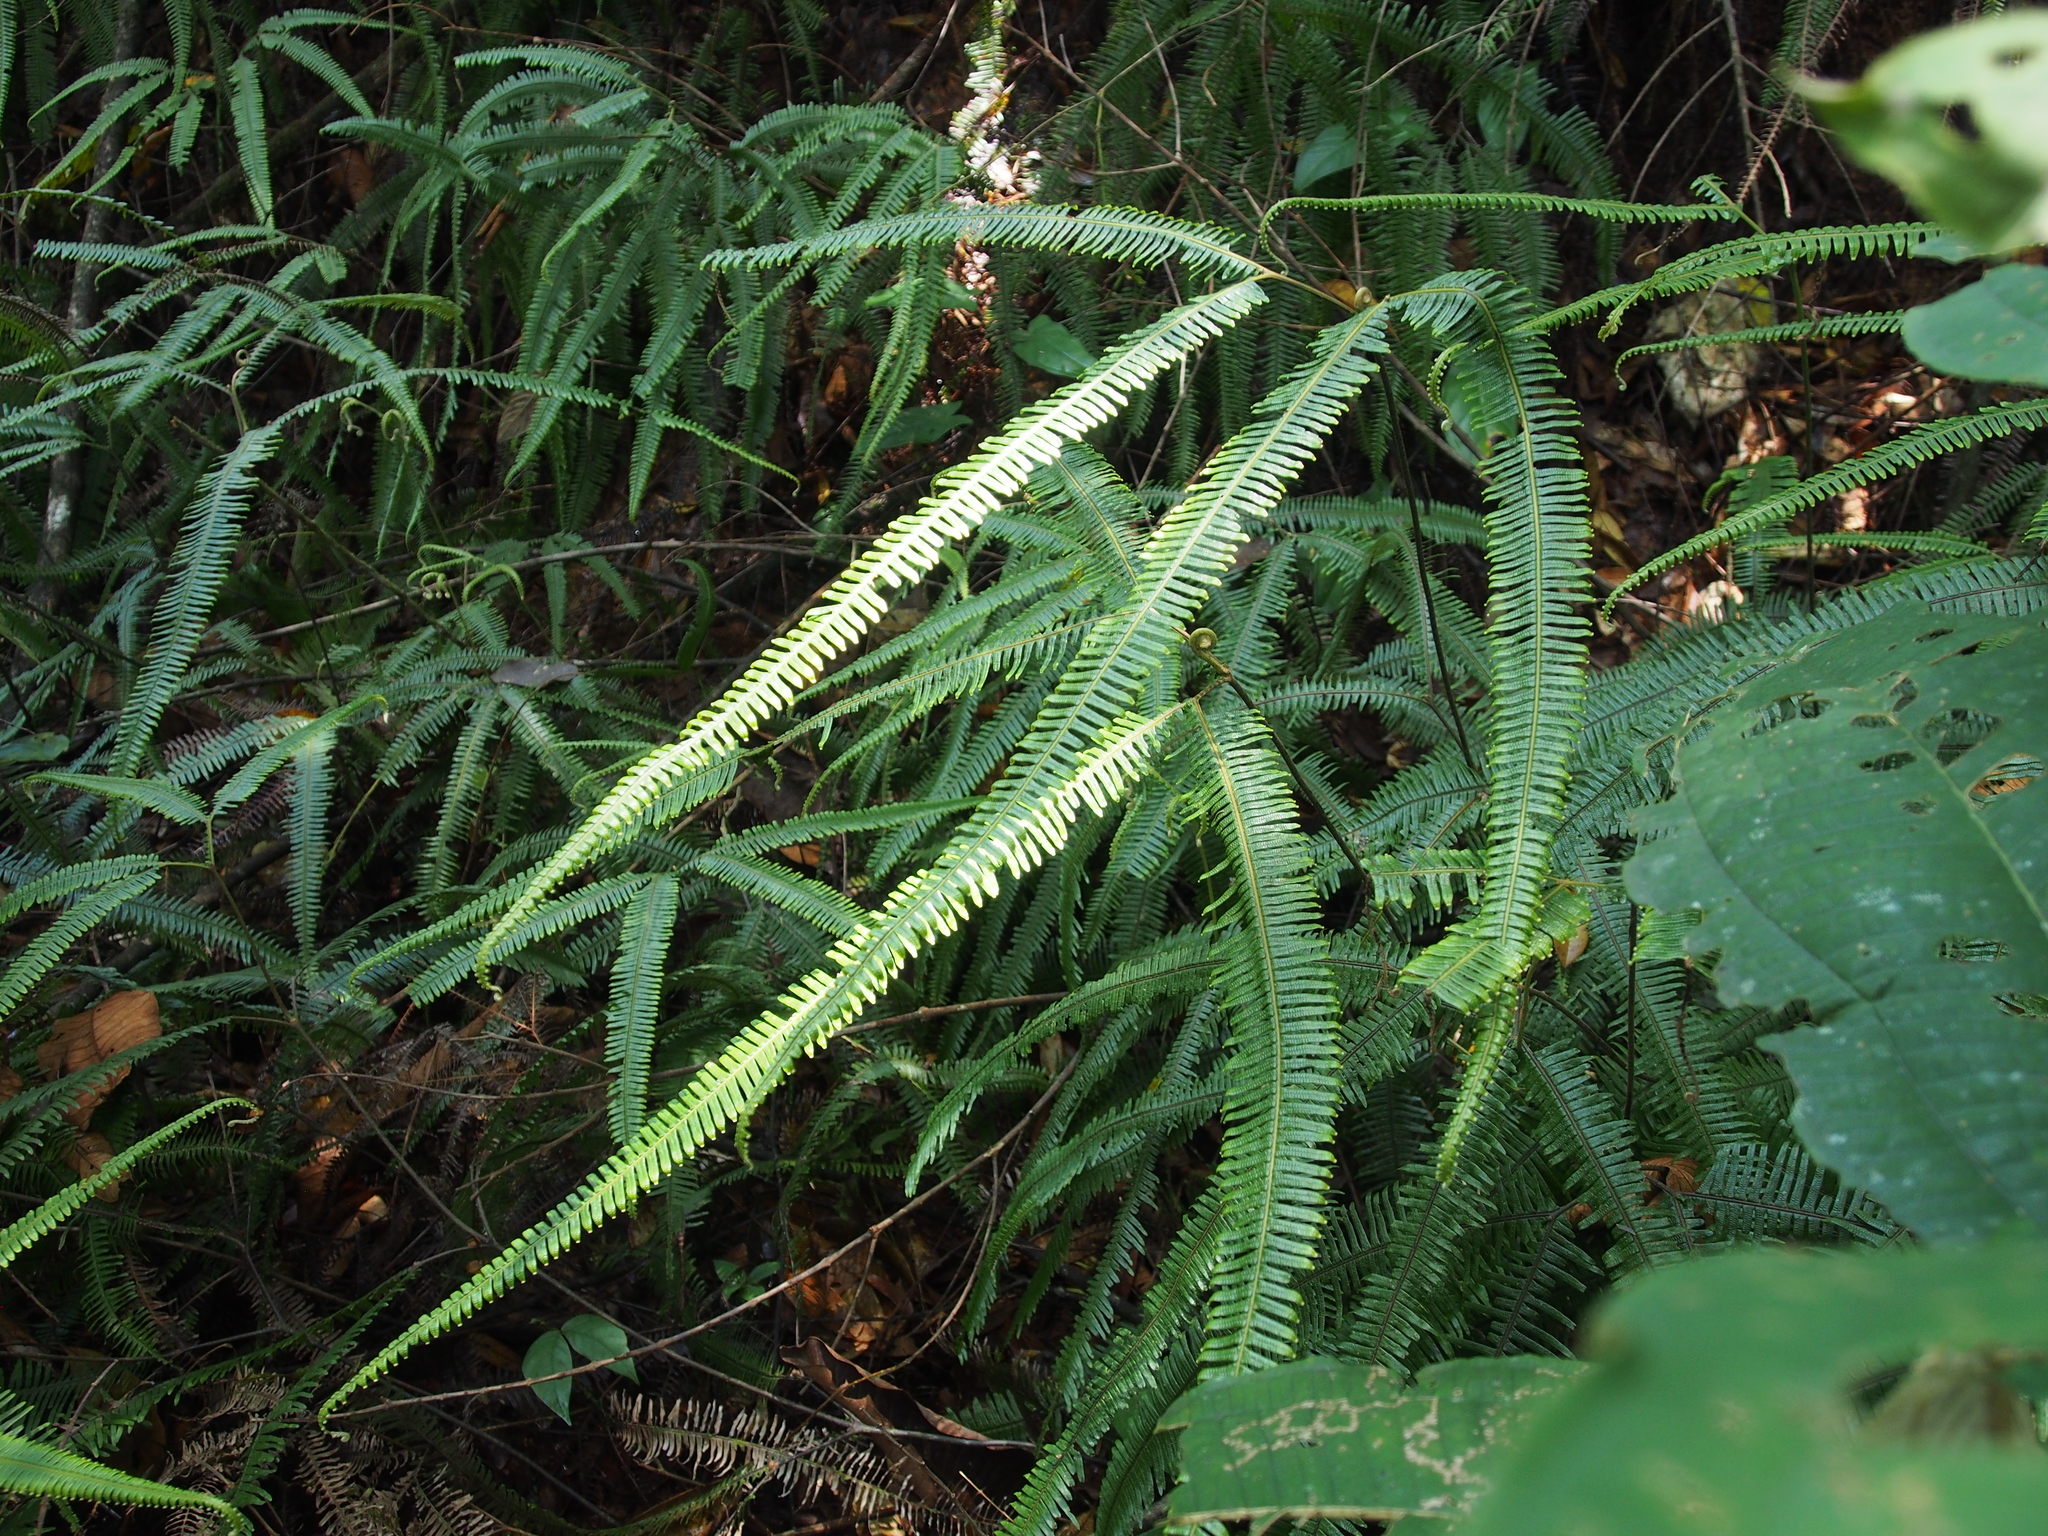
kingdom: Plantae
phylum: Tracheophyta
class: Polypodiopsida
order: Gleicheniales
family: Gleicheniaceae
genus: Sticherus
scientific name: Sticherus bifidus
